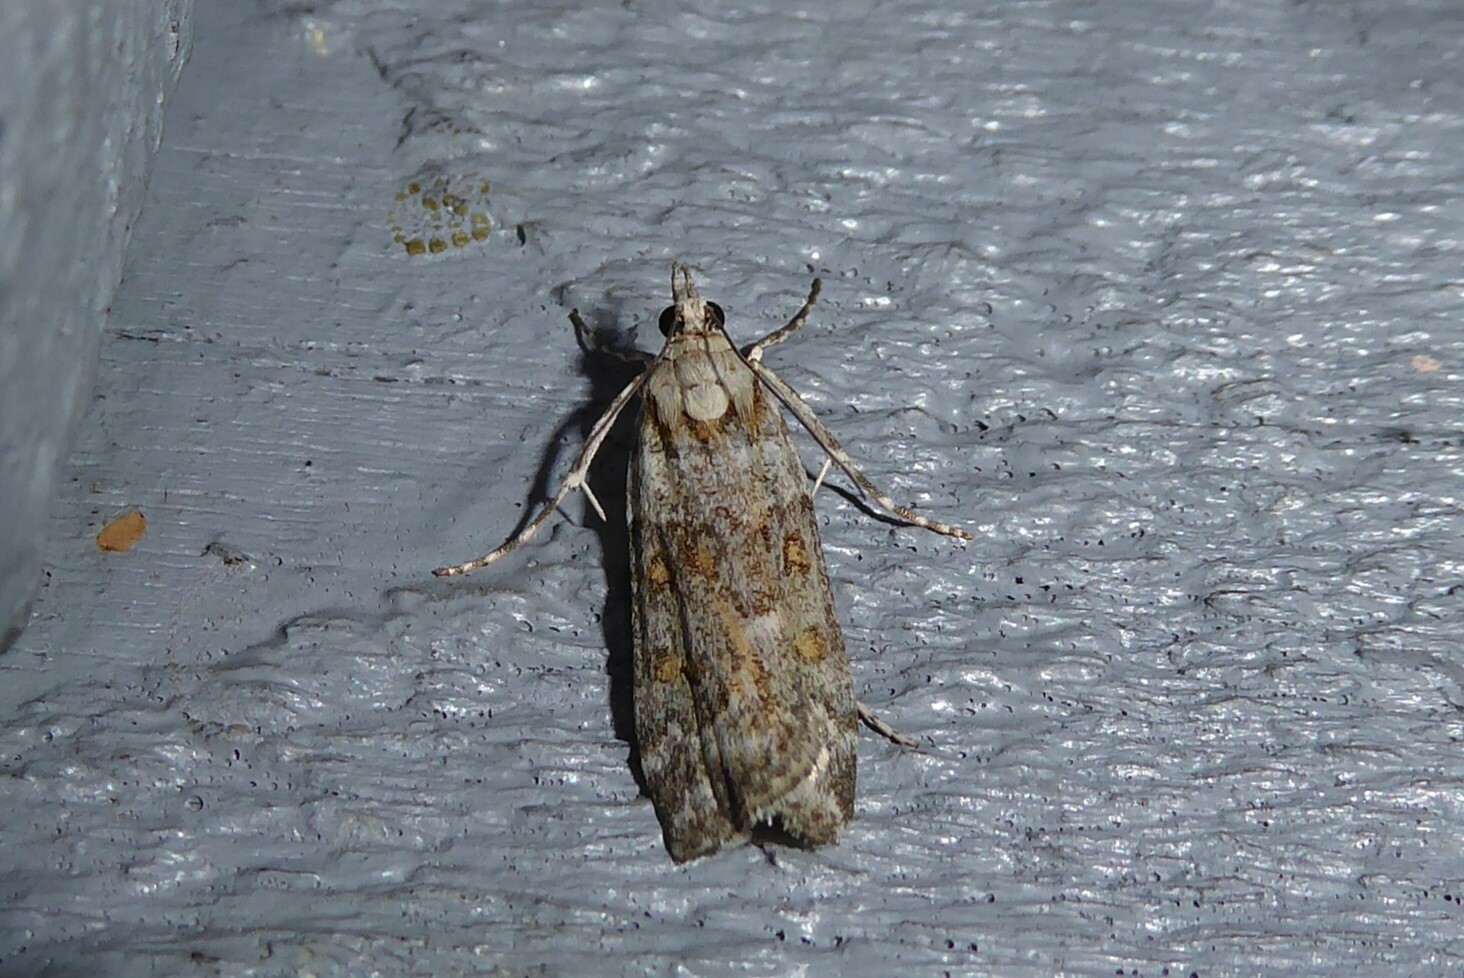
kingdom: Animalia
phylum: Arthropoda
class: Insecta
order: Lepidoptera
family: Crambidae
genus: Scoparia
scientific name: Scoparia tetracycla
